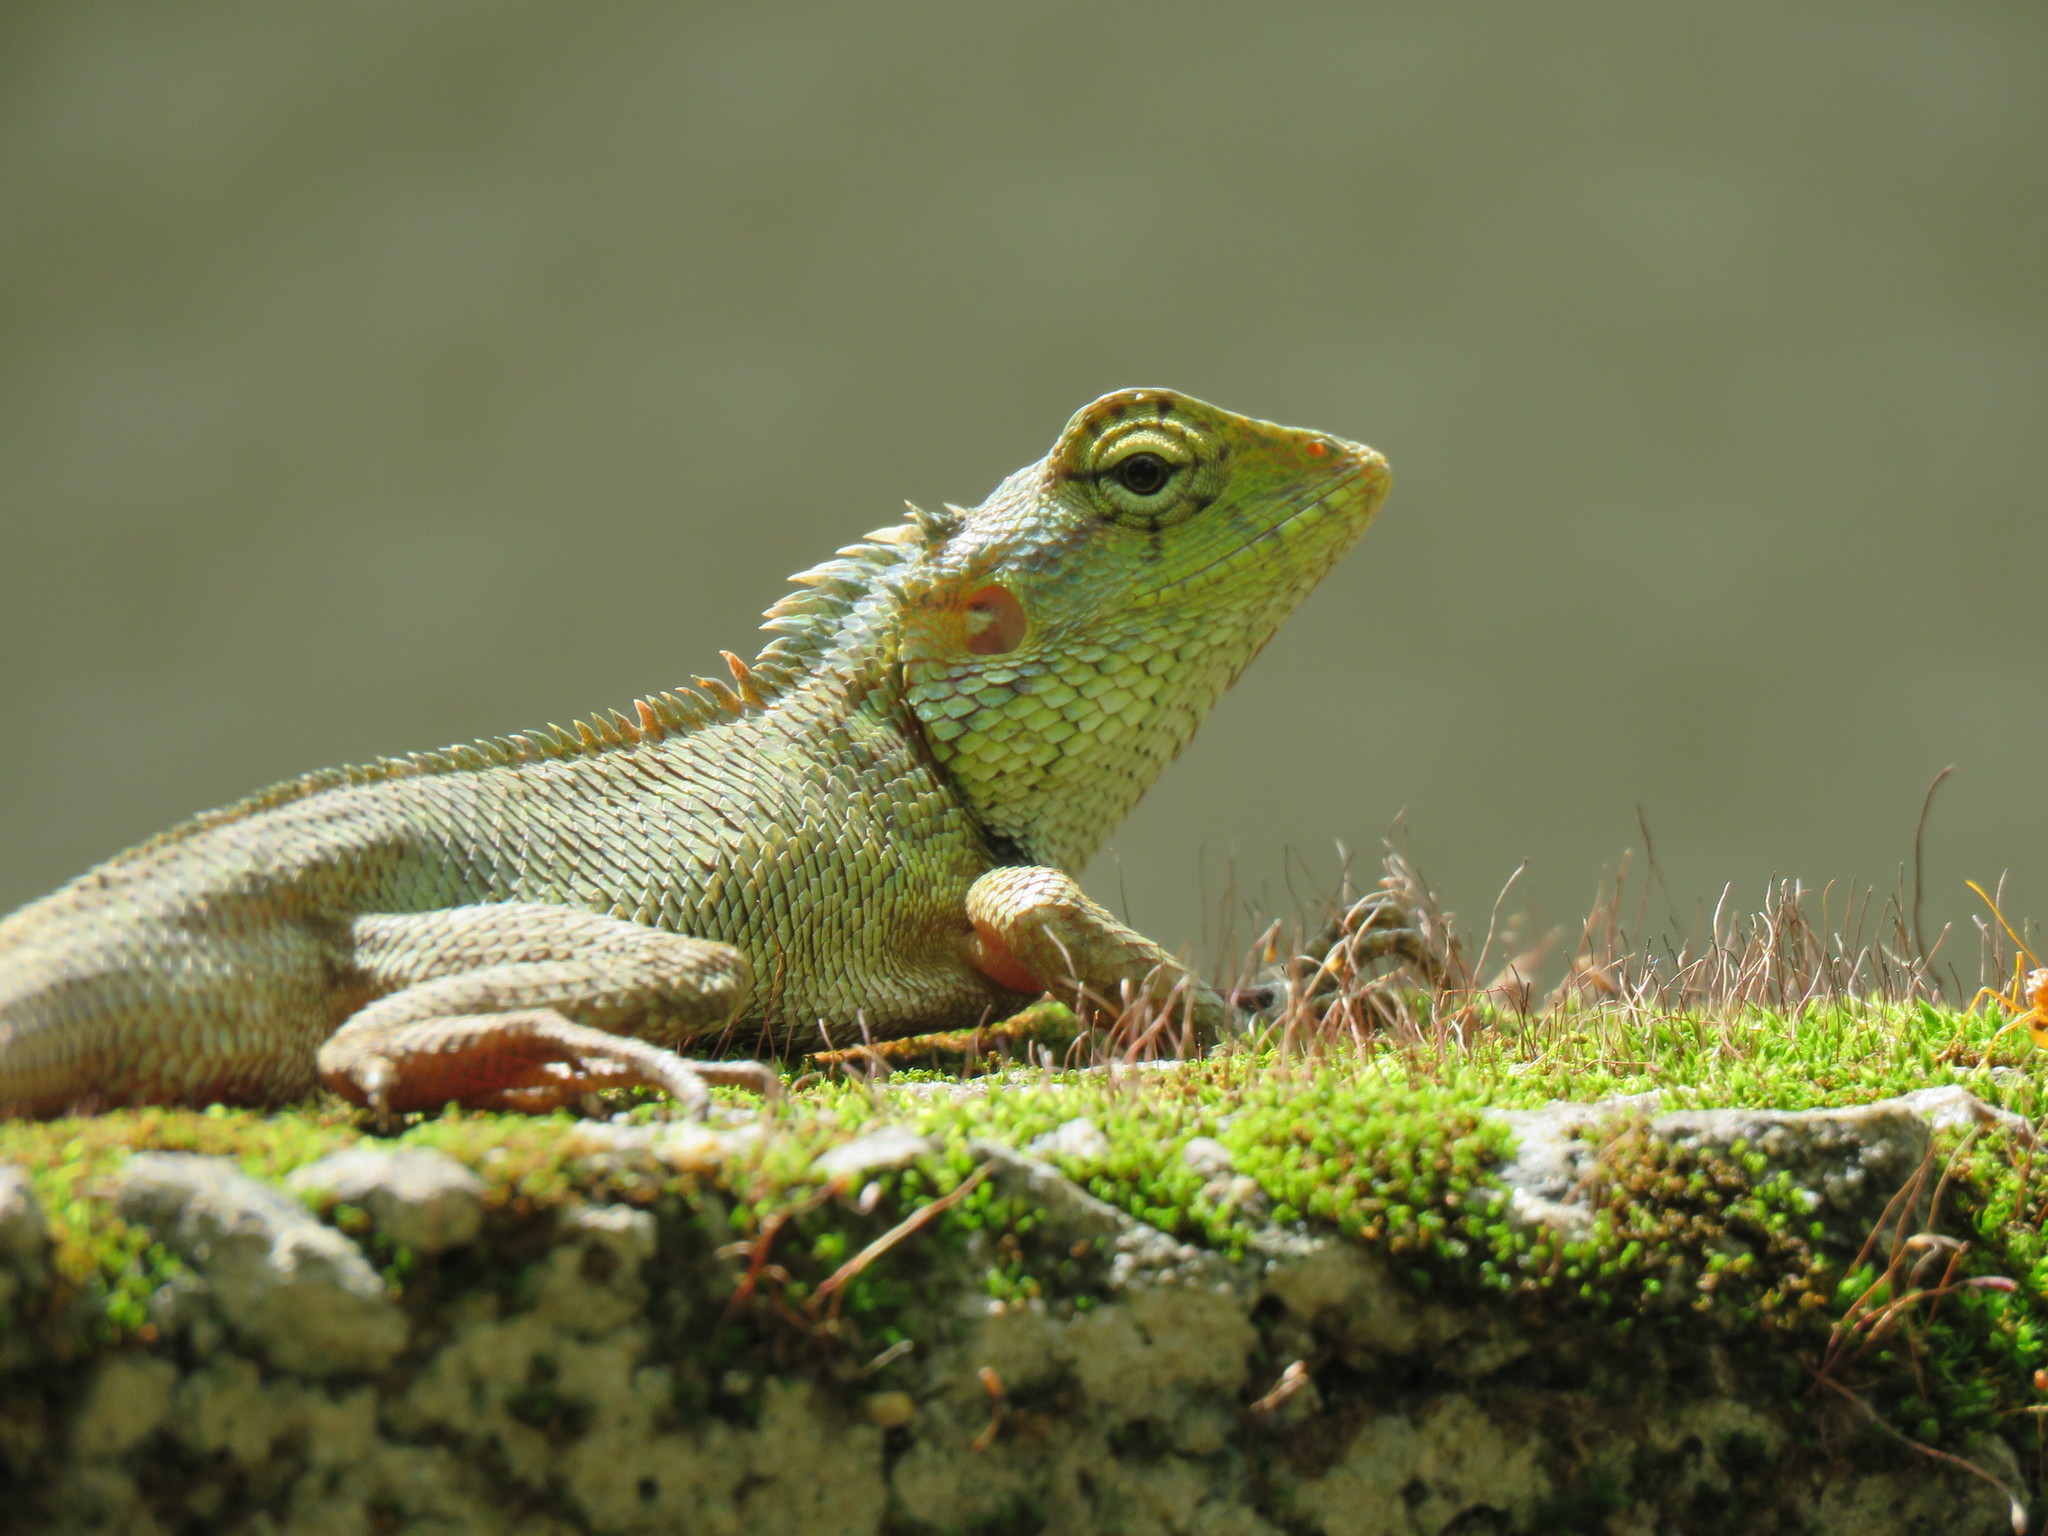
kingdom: Animalia
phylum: Chordata
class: Squamata
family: Agamidae
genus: Calotes
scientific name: Calotes versicolor
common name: Oriental garden lizard
